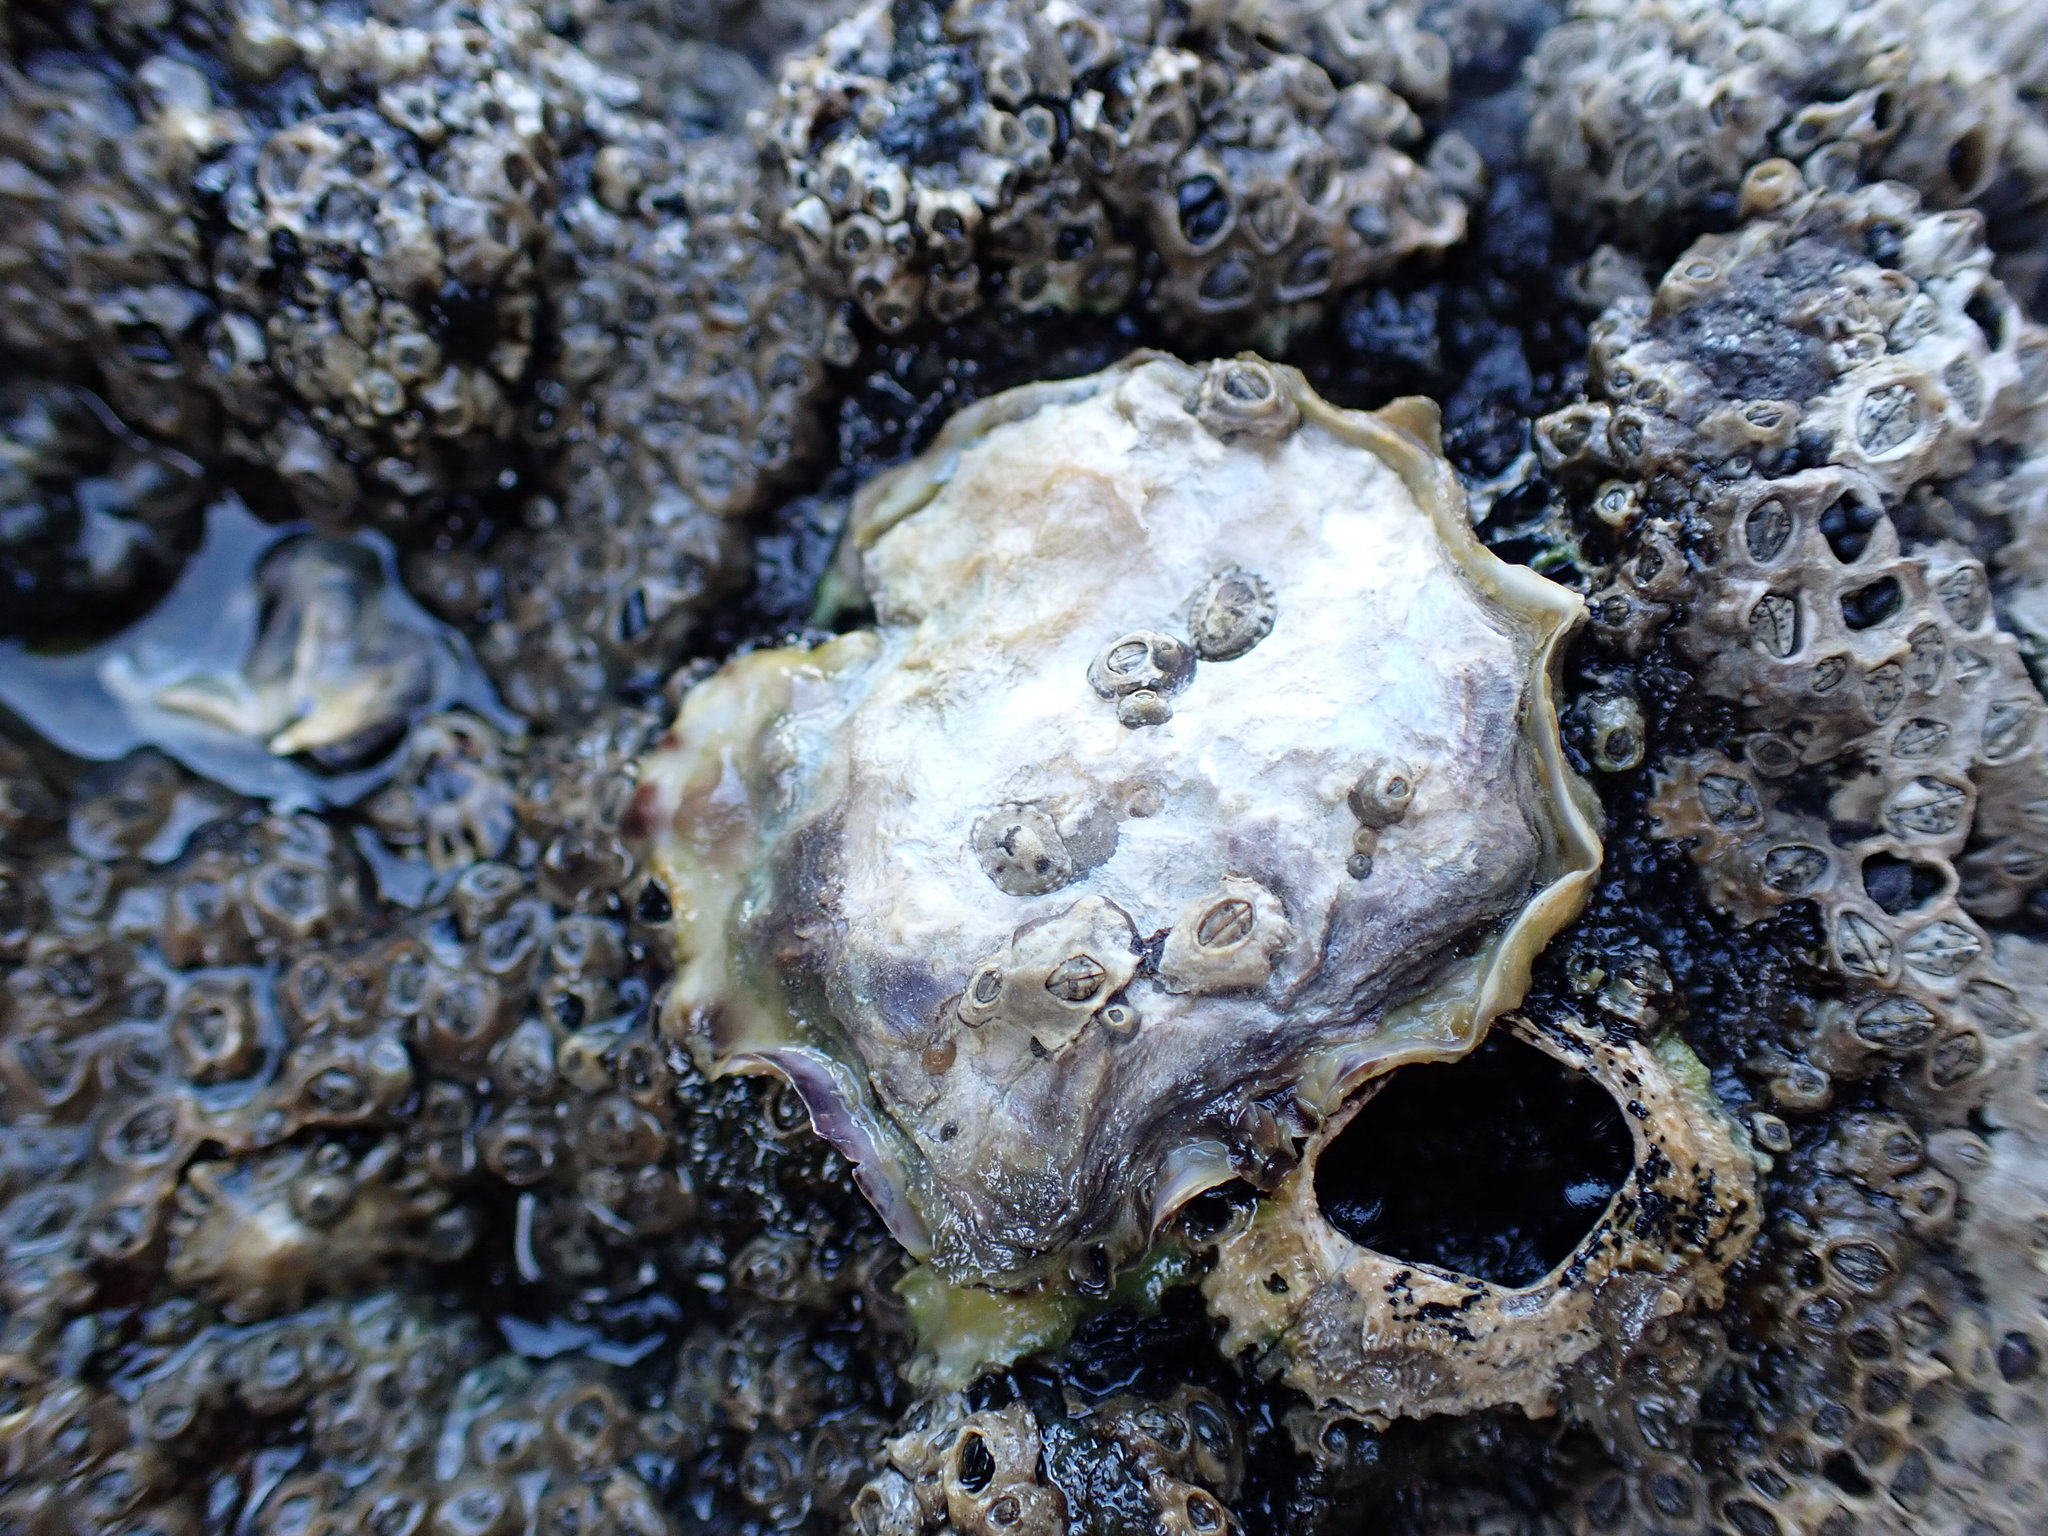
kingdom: Animalia
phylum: Mollusca
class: Bivalvia
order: Ostreida
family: Ostreidae
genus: Magallana
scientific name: Magallana gigas
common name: Pacific oyster
